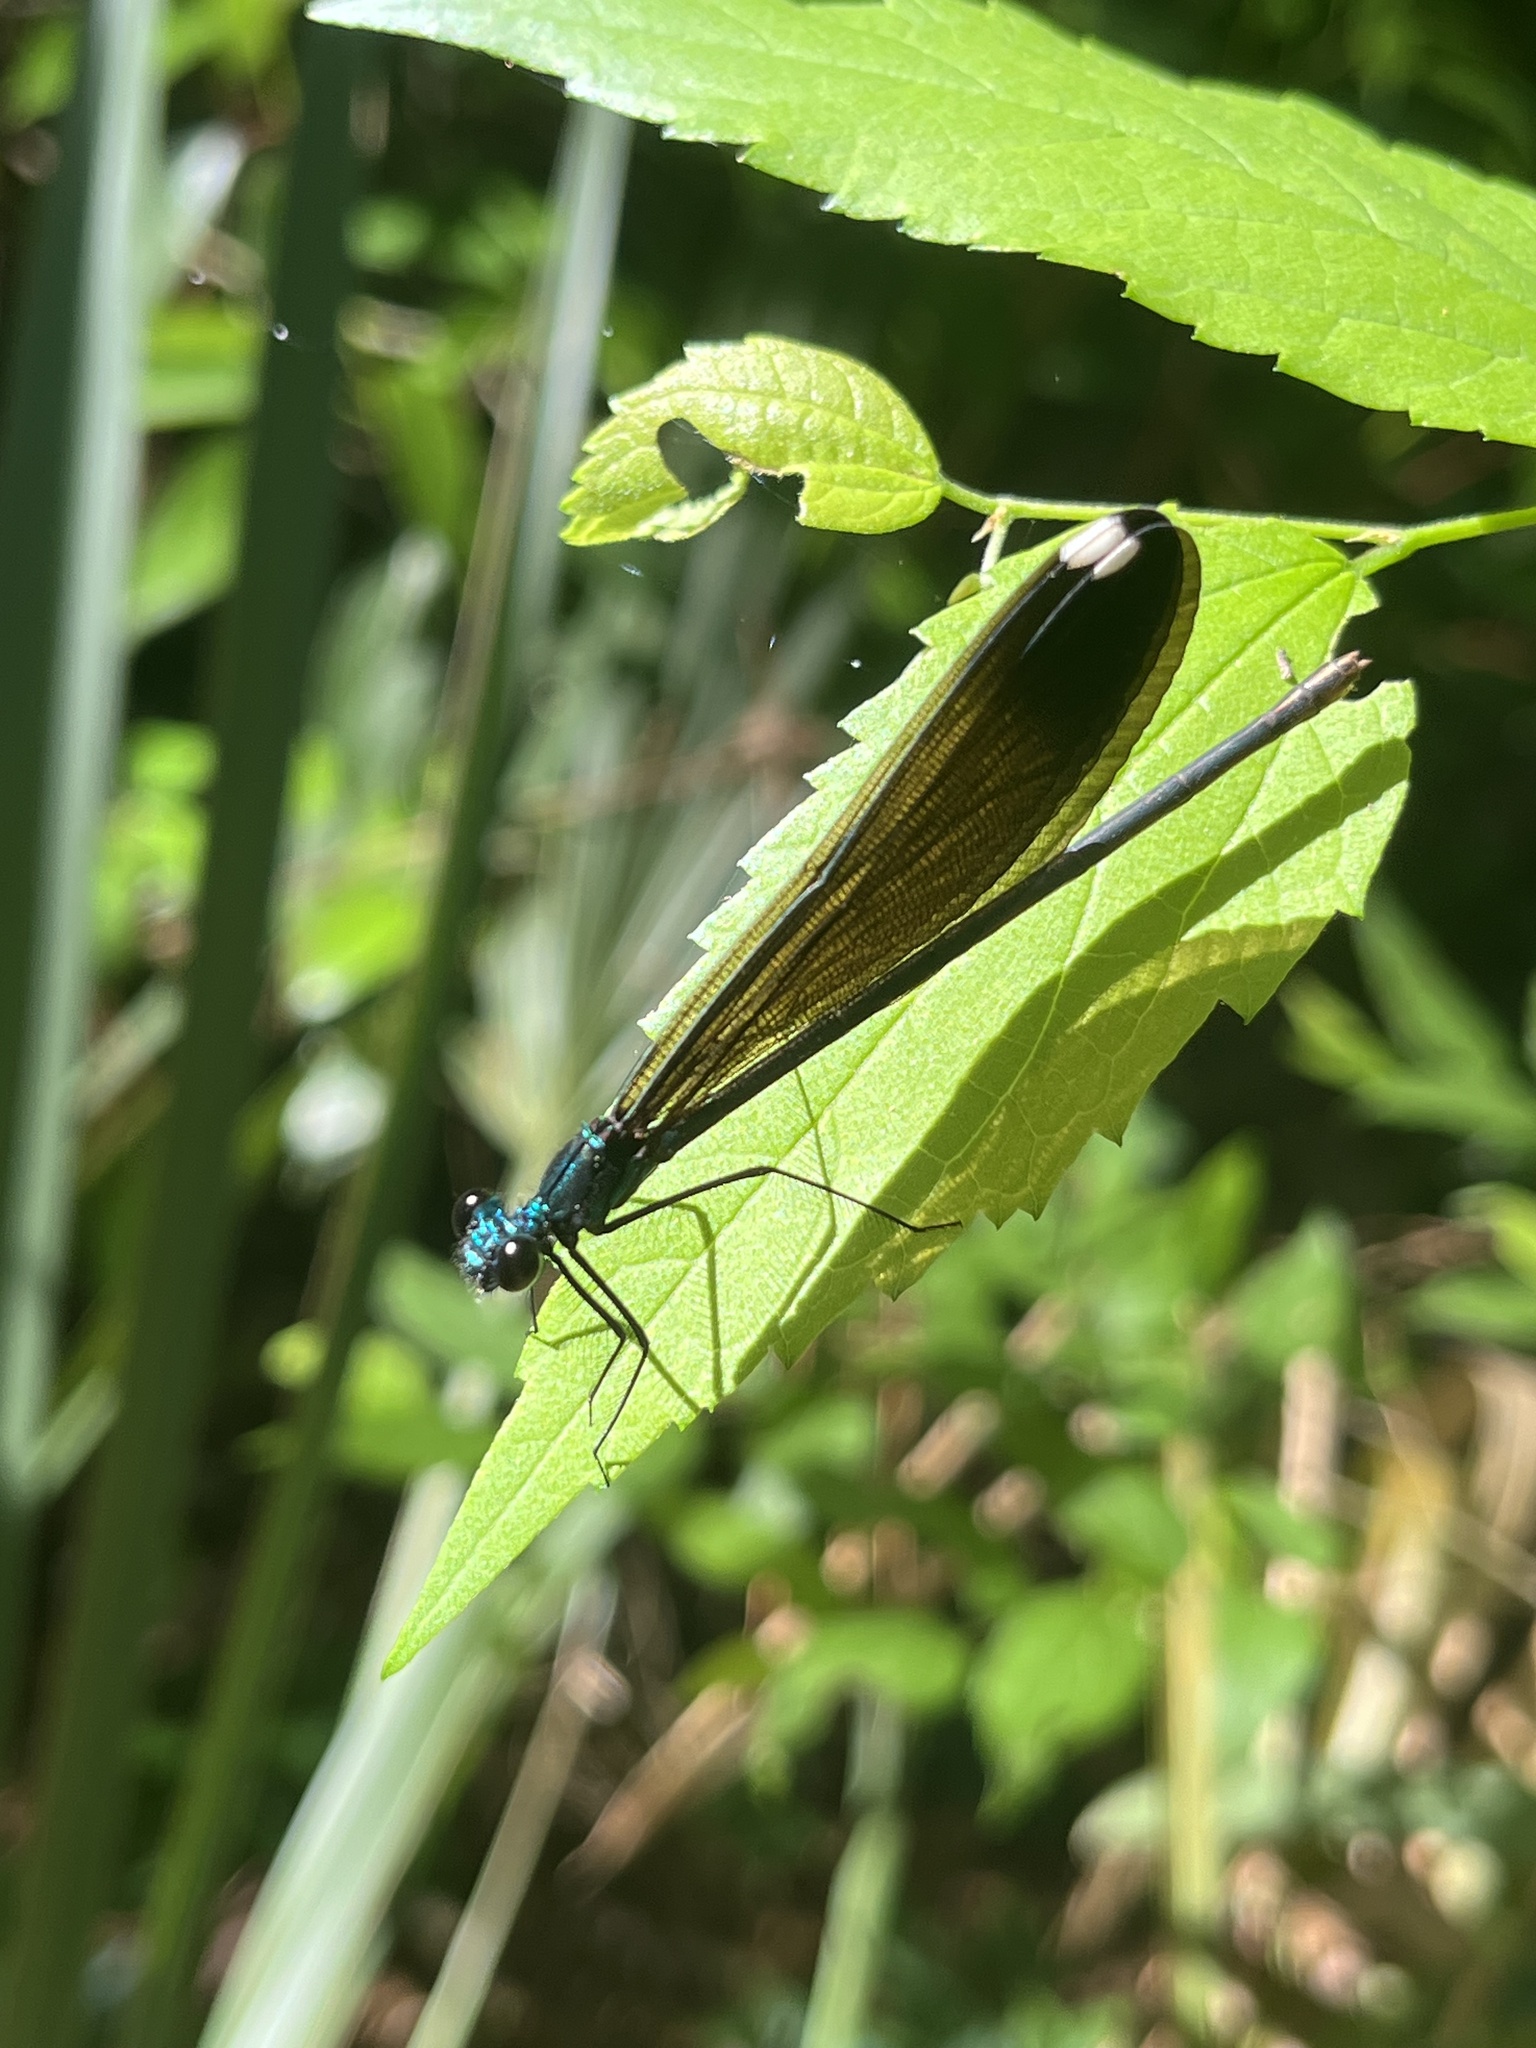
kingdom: Animalia
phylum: Arthropoda
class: Insecta
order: Odonata
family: Calopterygidae
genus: Calopteryx
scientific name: Calopteryx maculata
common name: Ebony jewelwing
